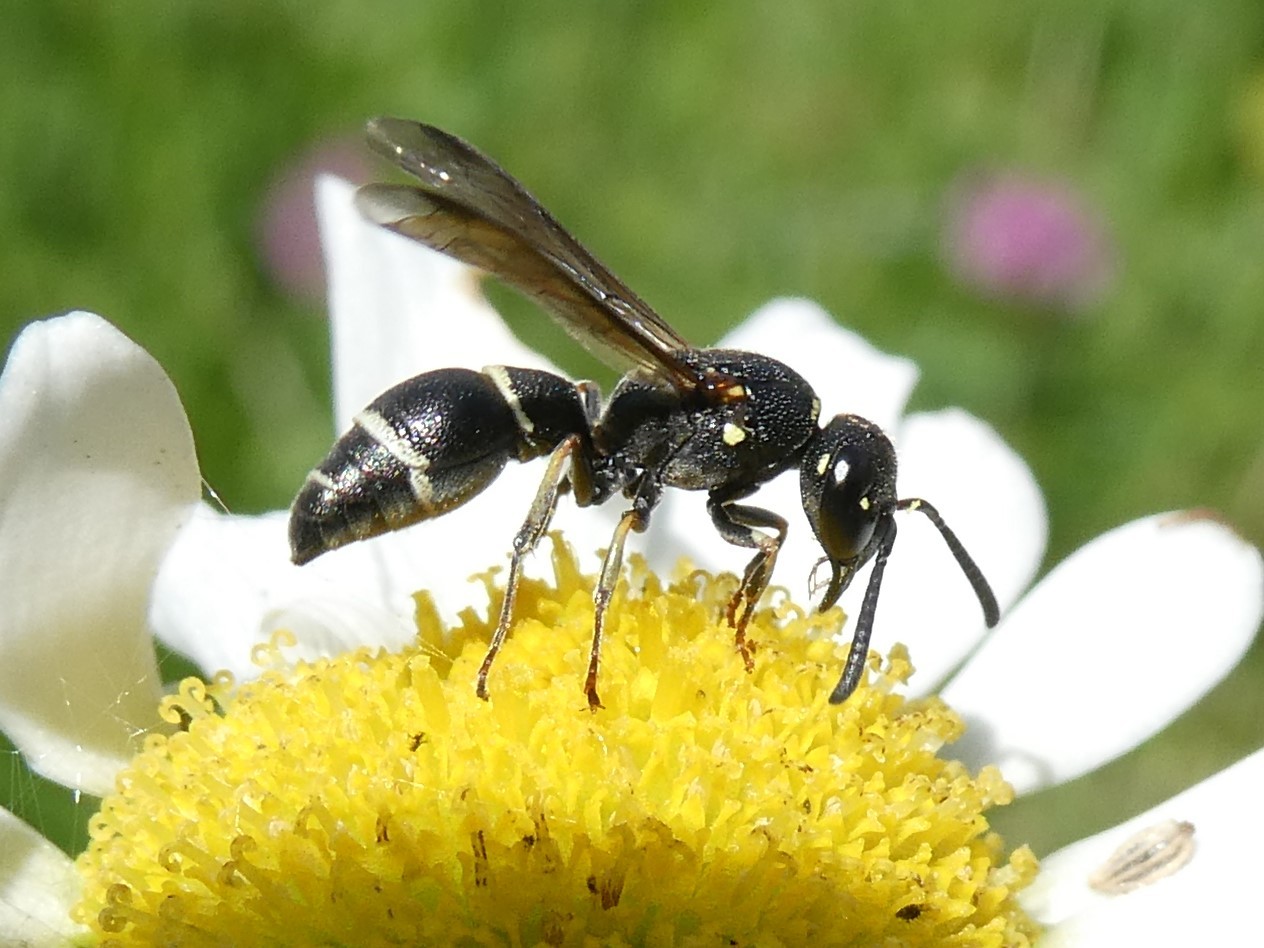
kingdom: Animalia
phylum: Arthropoda
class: Insecta
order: Hymenoptera
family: Eumenidae
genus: Parancistrocerus
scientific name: Parancistrocerus pensylvanicus
